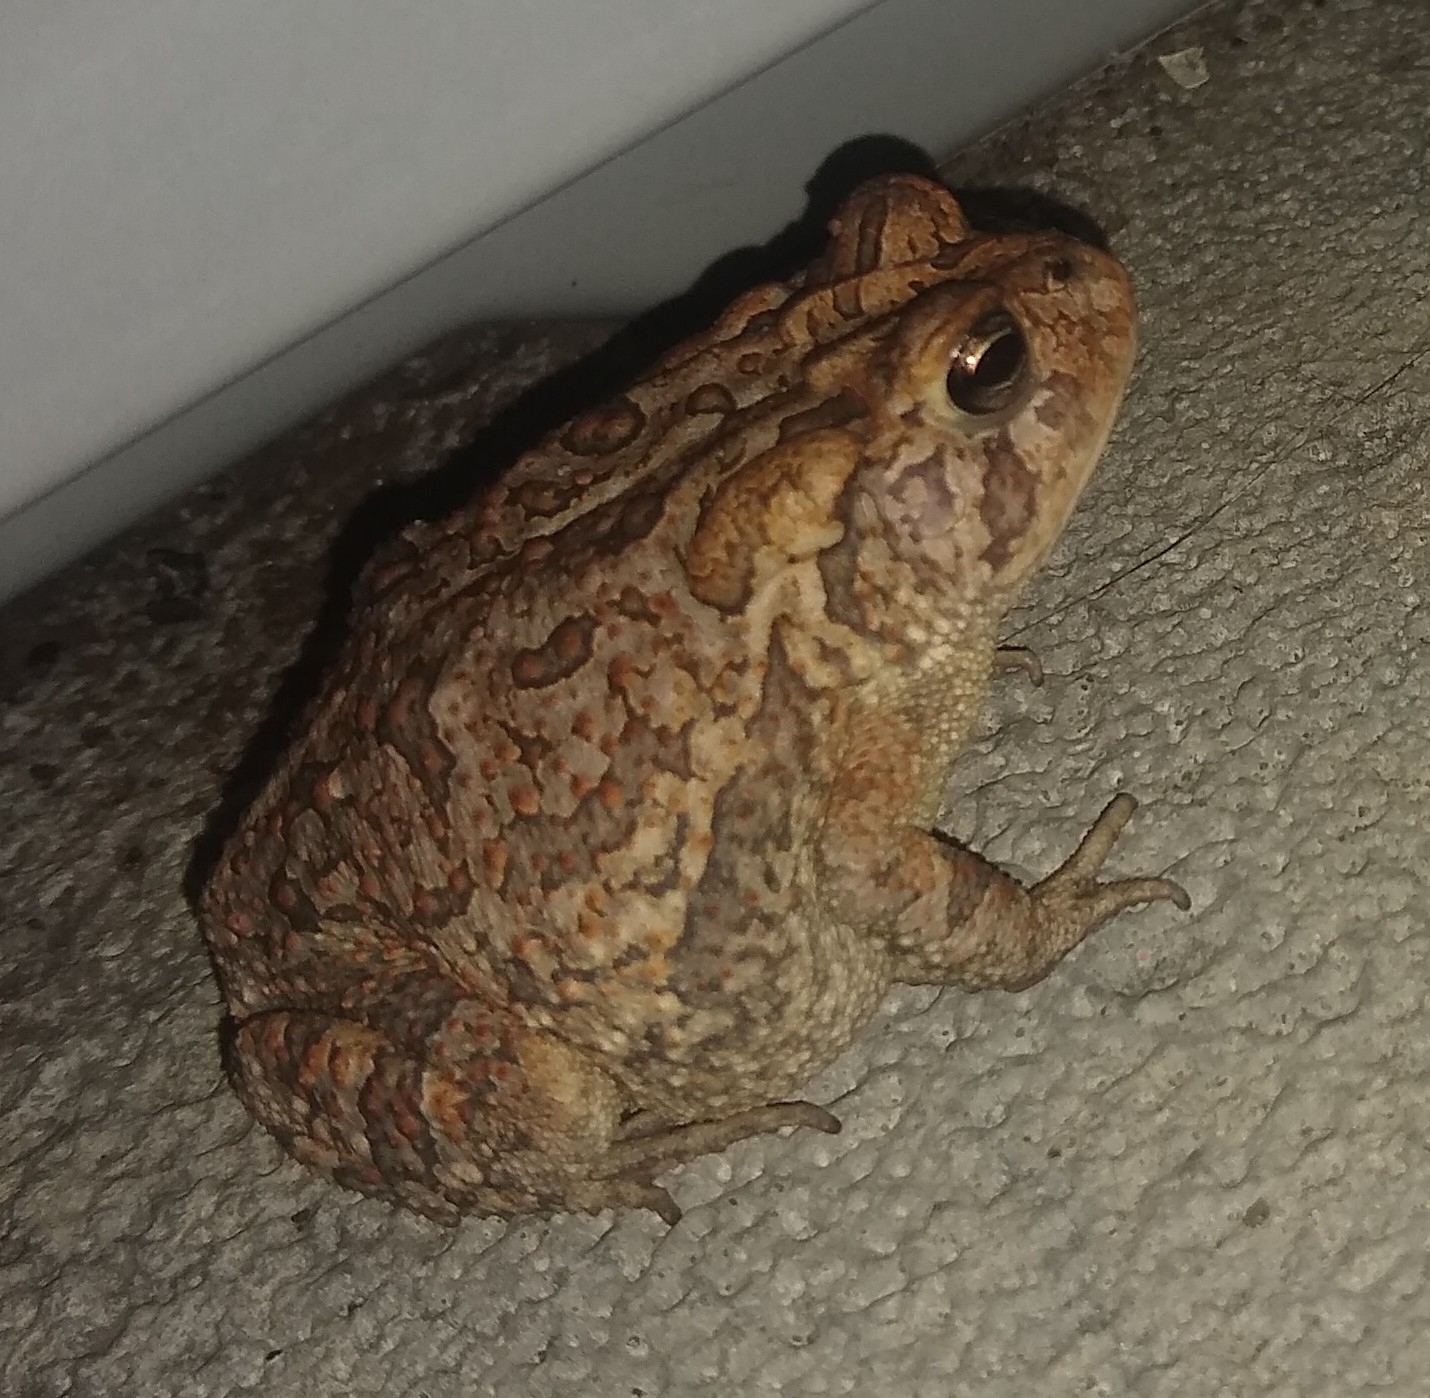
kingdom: Animalia
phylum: Chordata
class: Amphibia
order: Anura
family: Bufonidae
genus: Anaxyrus
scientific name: Anaxyrus terrestris
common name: Southern toad
